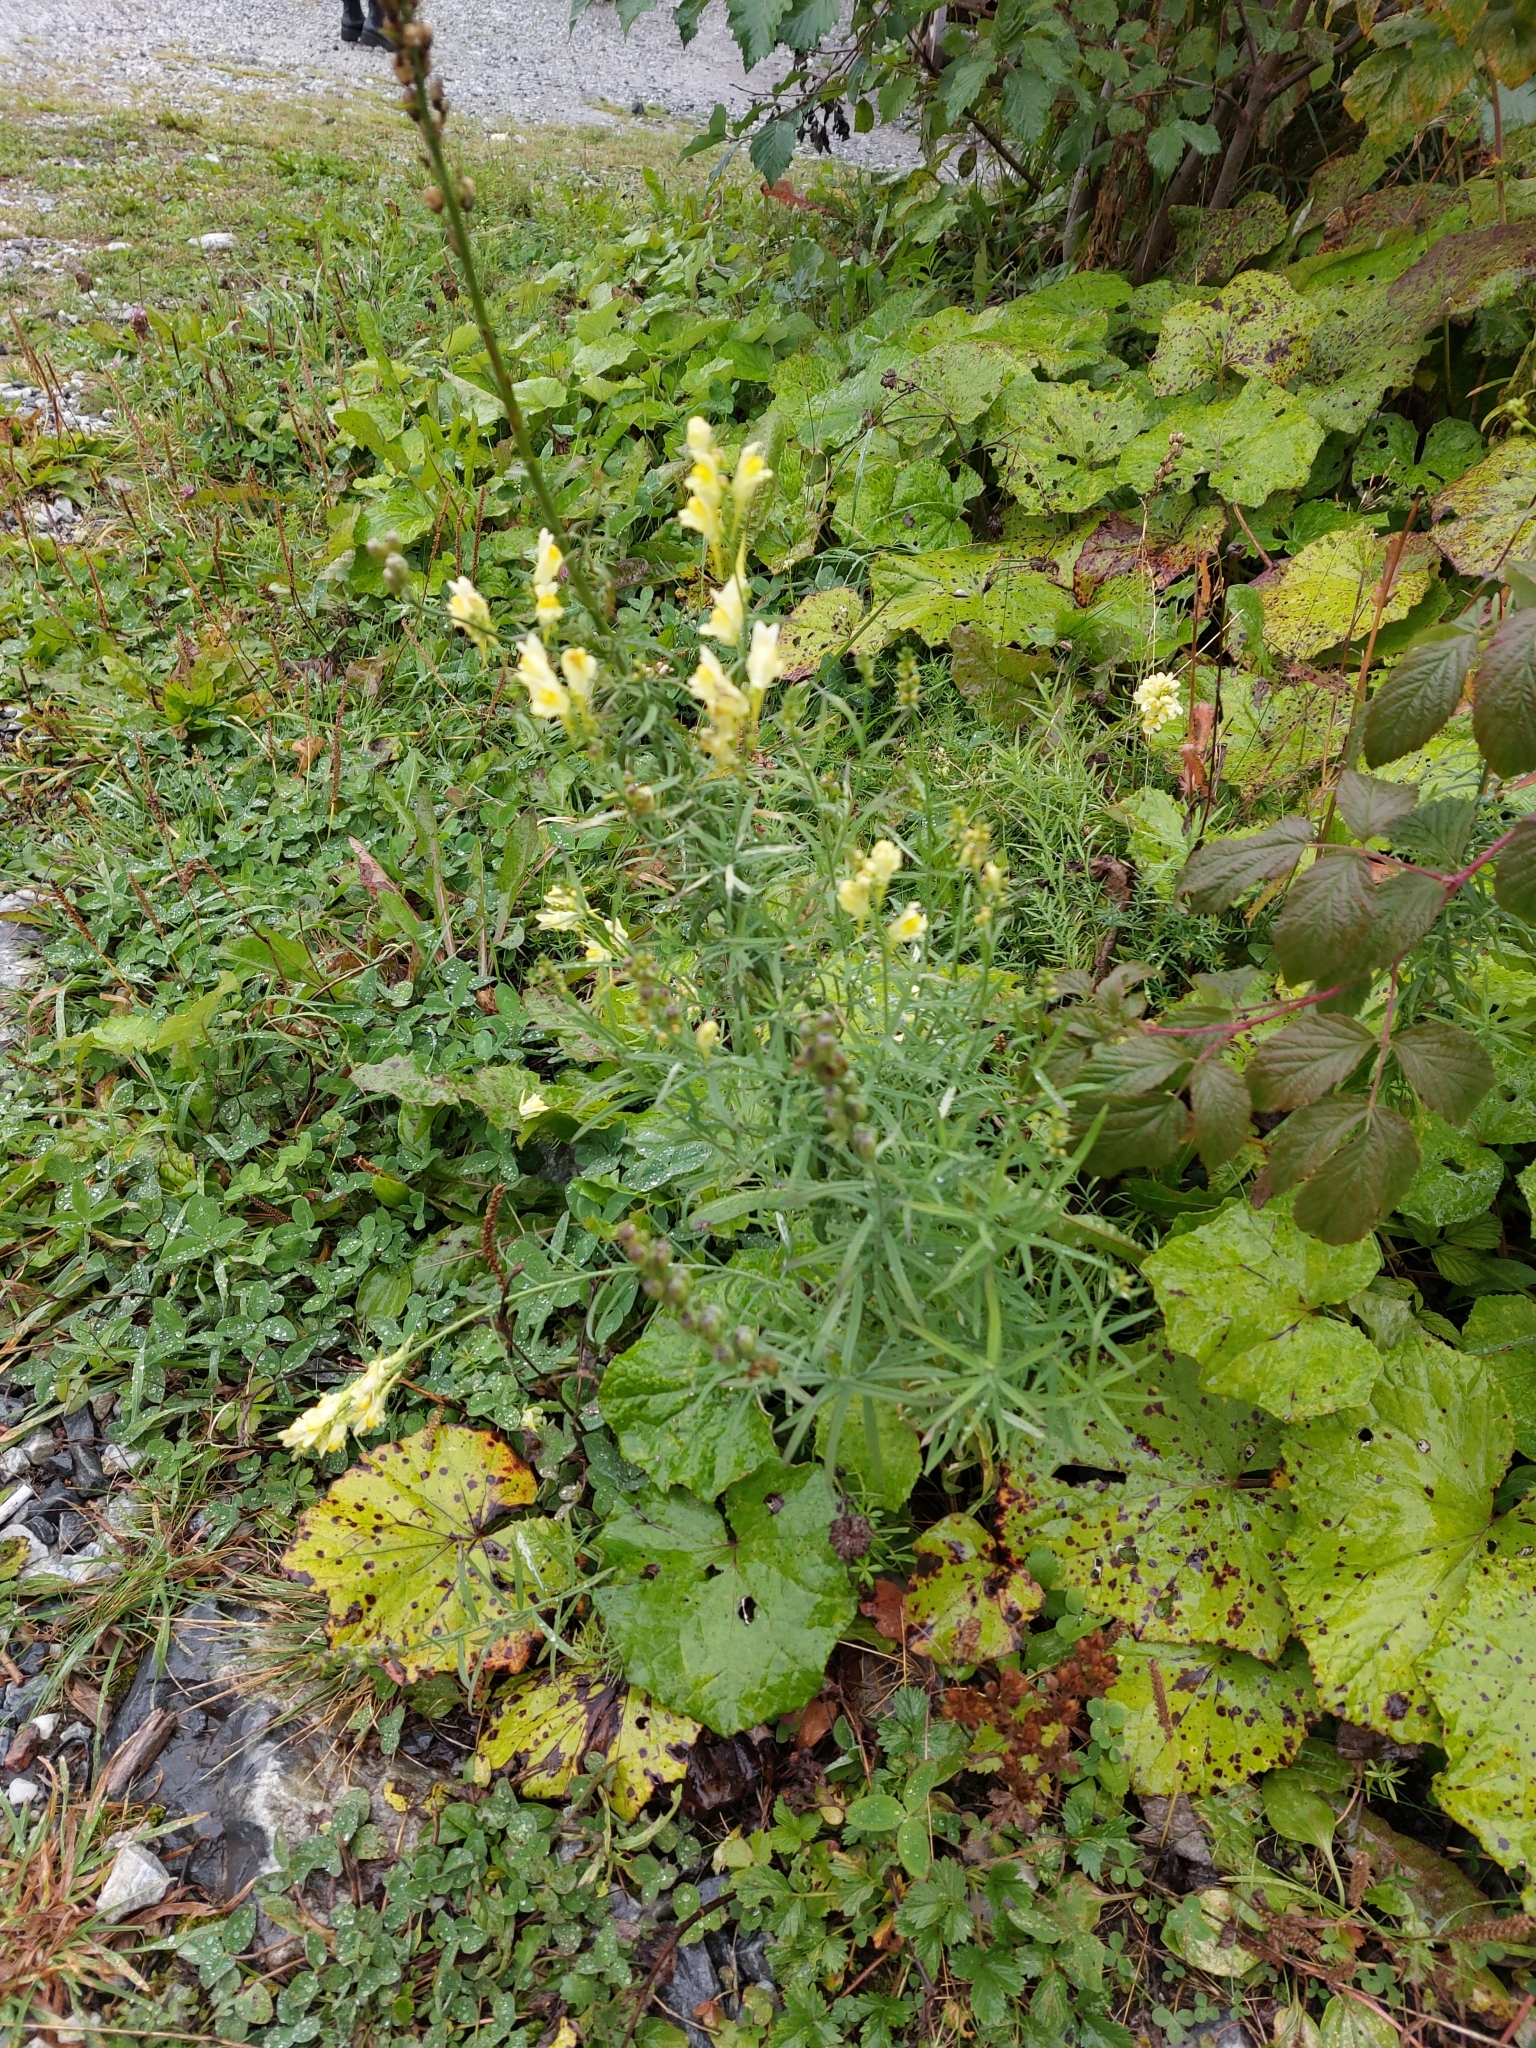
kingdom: Plantae
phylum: Tracheophyta
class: Magnoliopsida
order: Lamiales
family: Plantaginaceae
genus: Linaria
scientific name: Linaria vulgaris
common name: Butter and eggs
